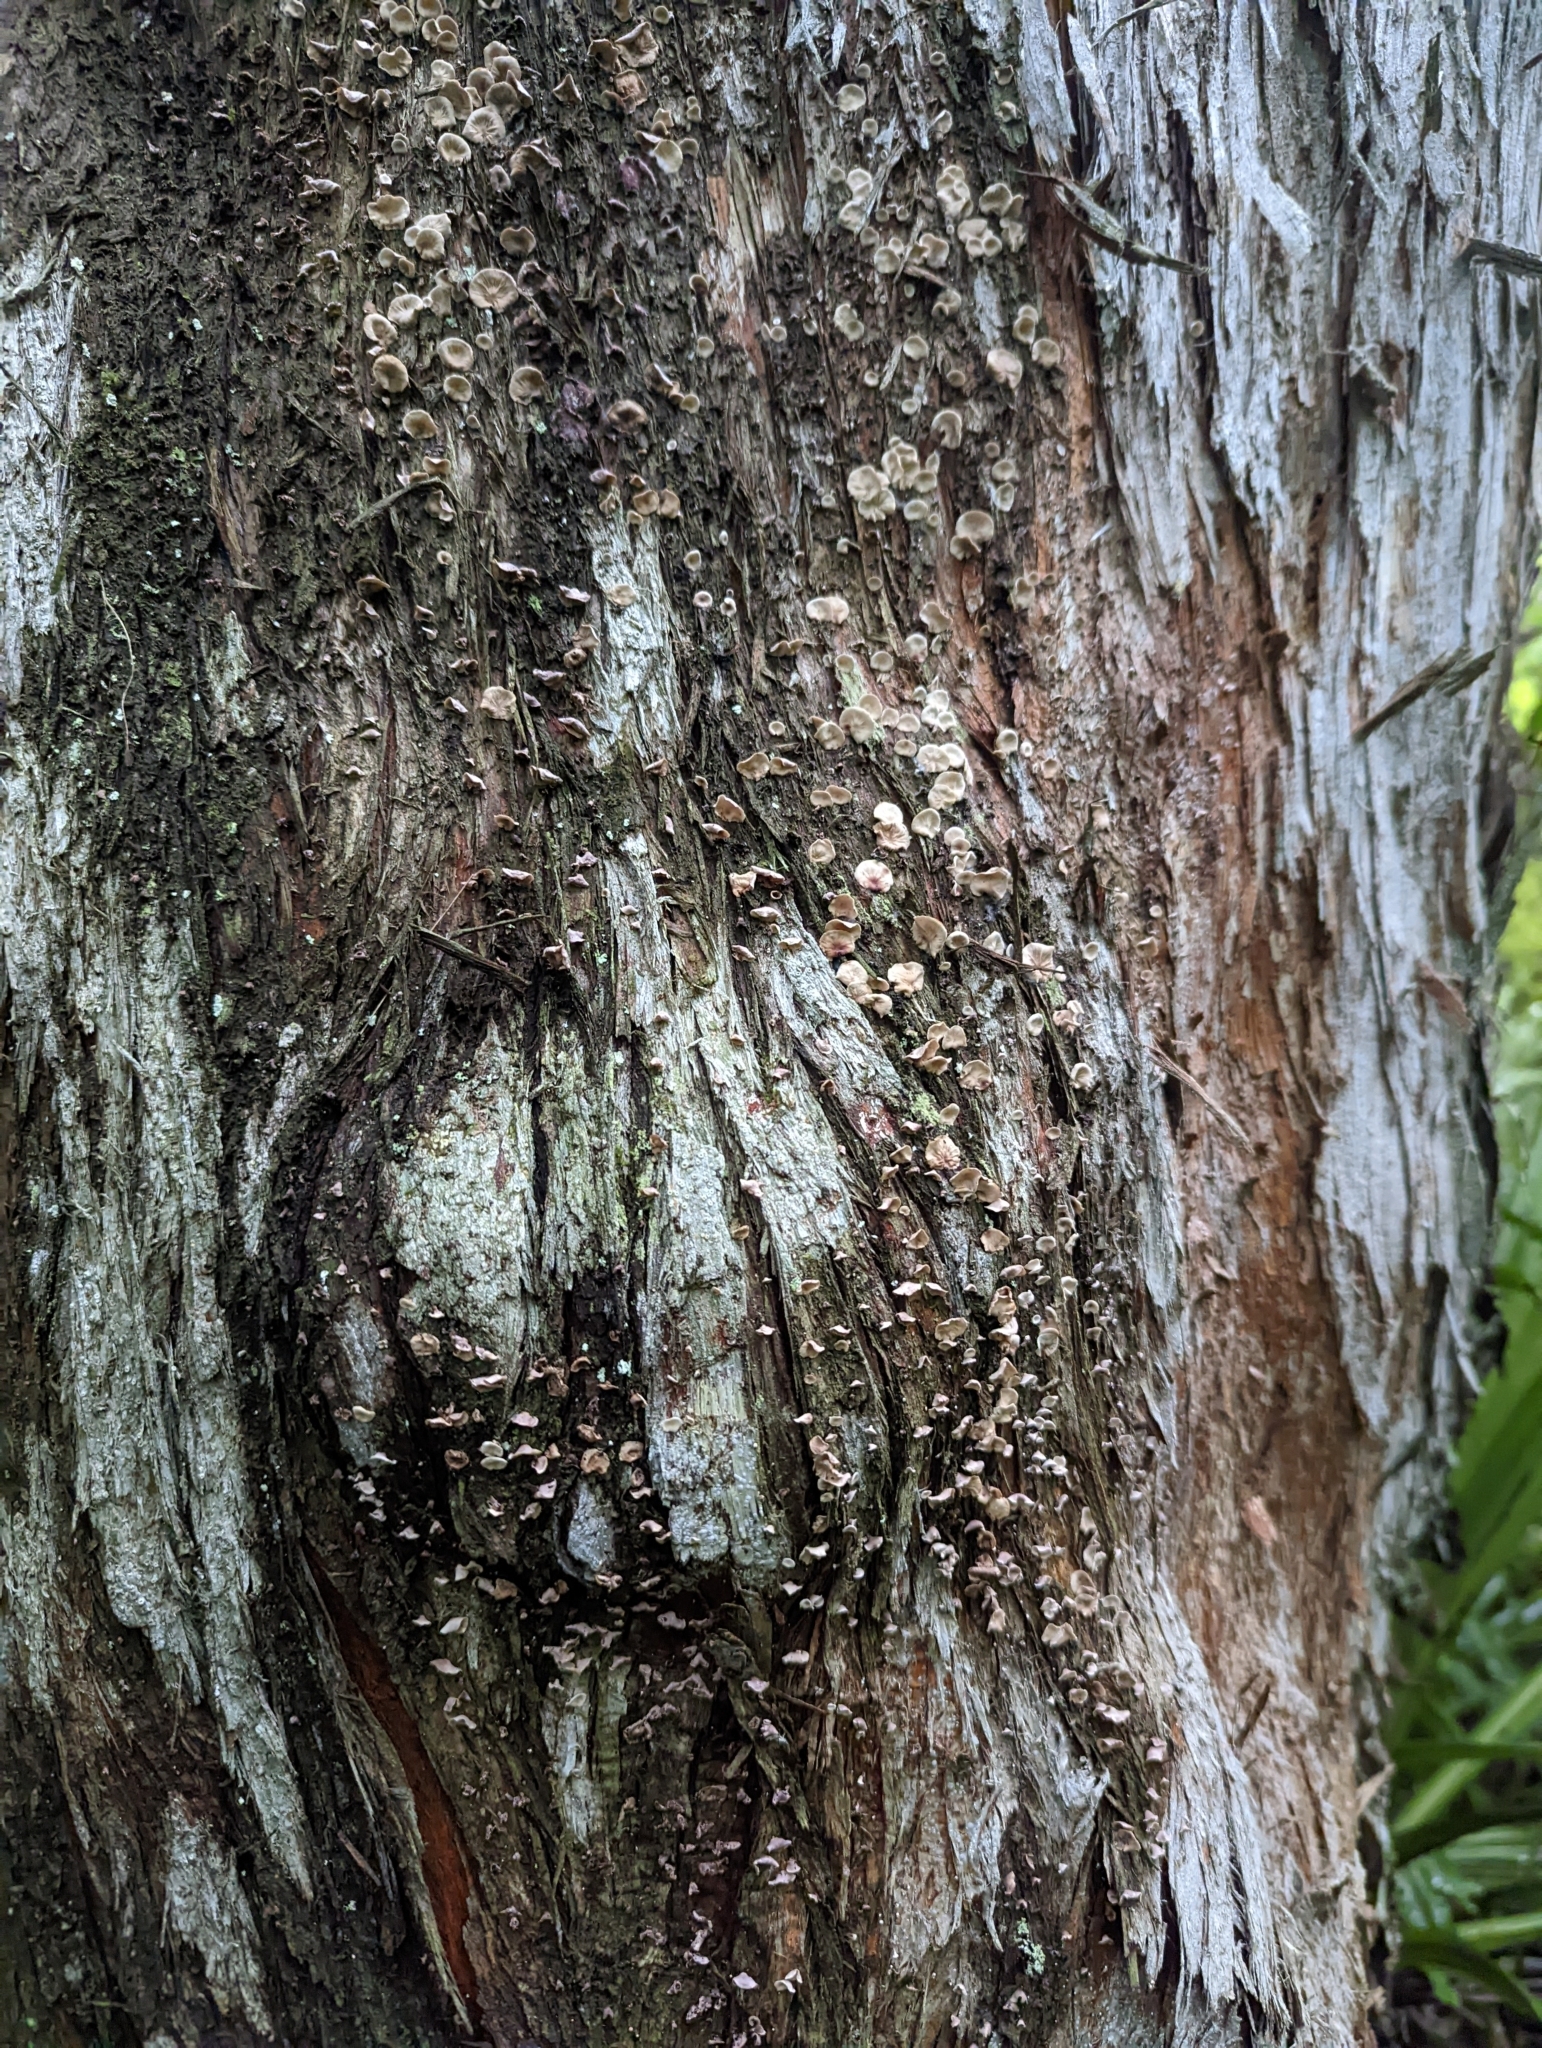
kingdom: Fungi
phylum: Basidiomycota
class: Agaricomycetes
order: Agaricales
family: Marasmiaceae
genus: Calyptella
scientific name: Calyptella totara
